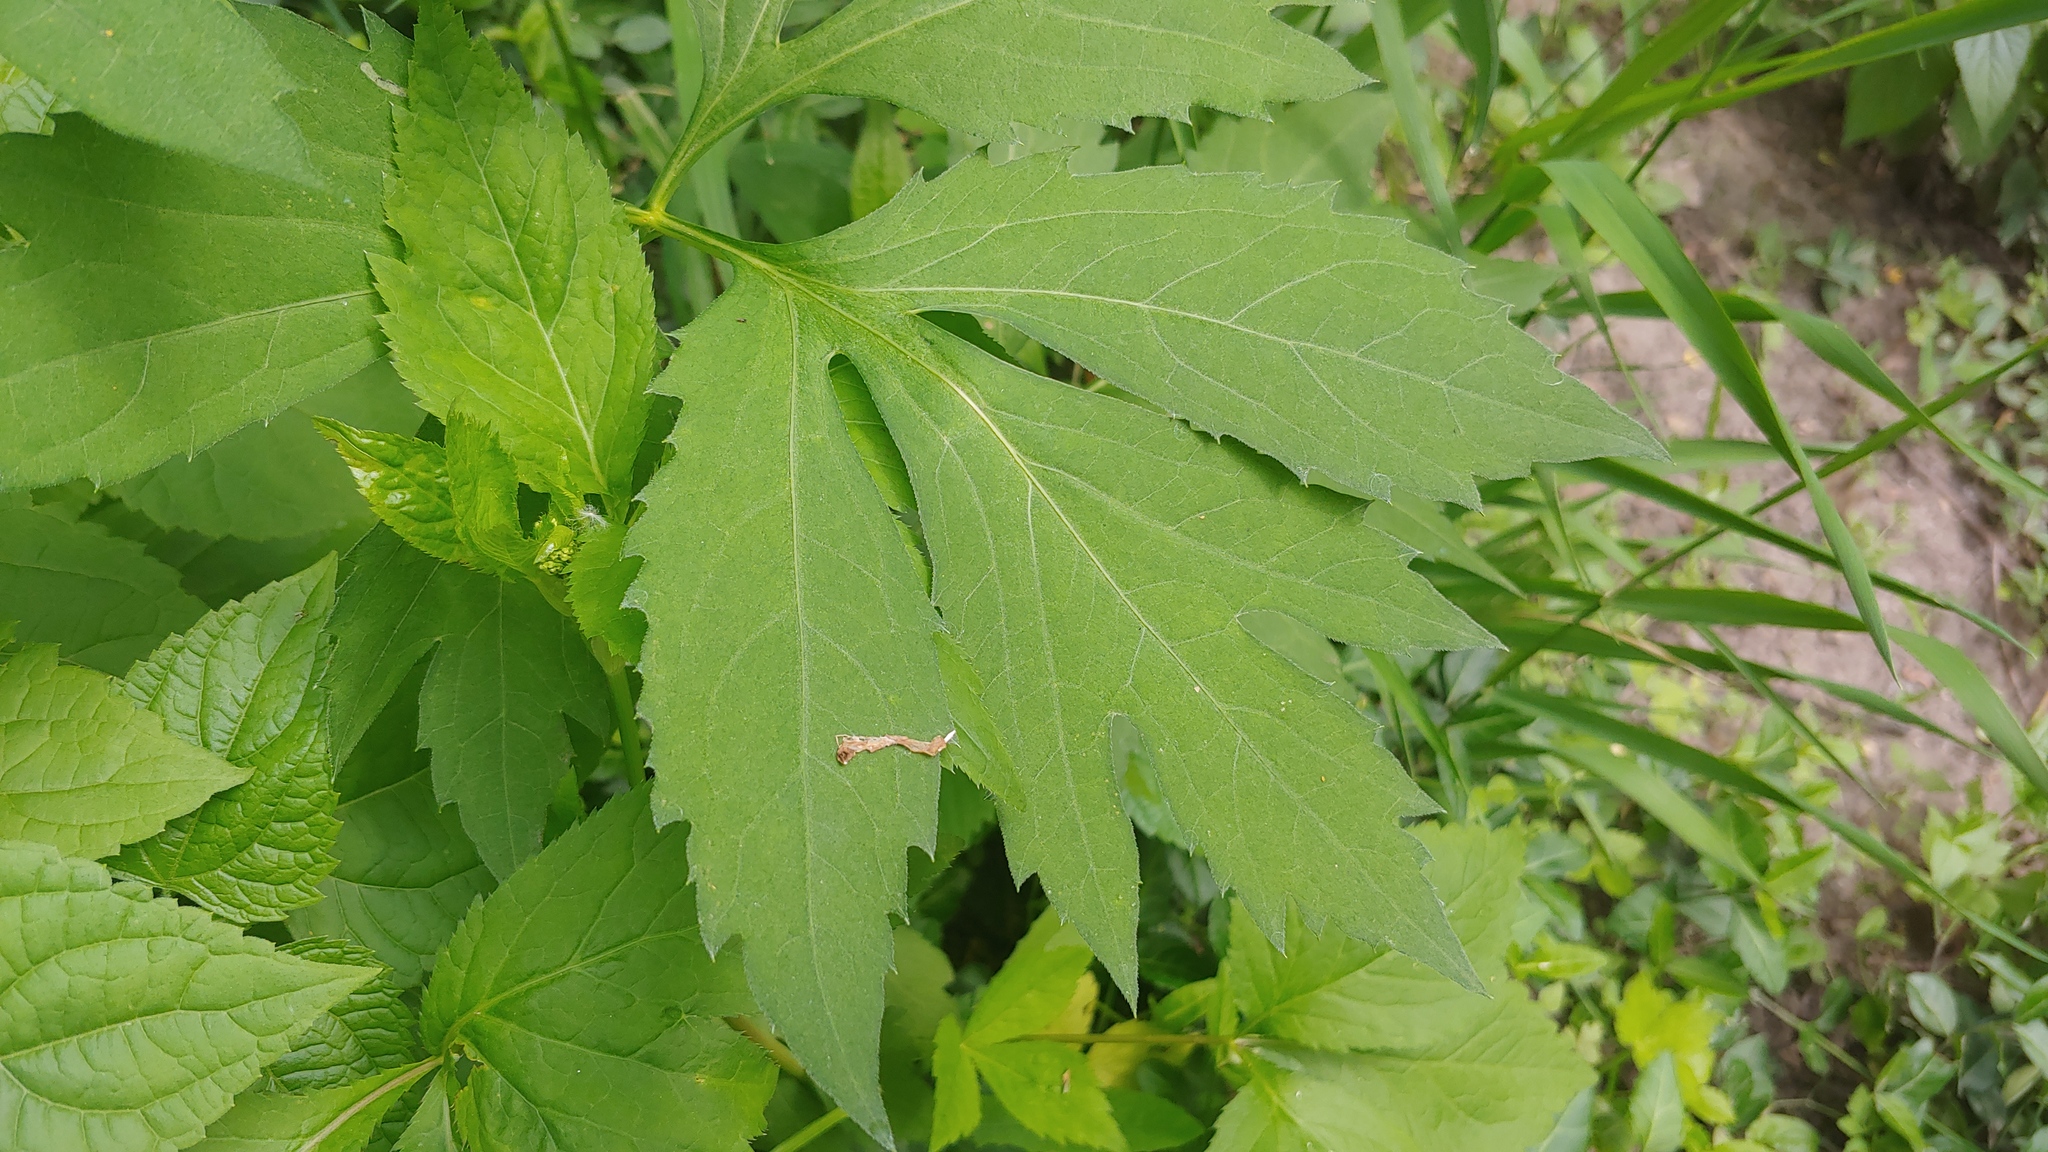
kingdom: Plantae
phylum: Tracheophyta
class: Magnoliopsida
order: Asterales
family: Asteraceae
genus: Rudbeckia
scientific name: Rudbeckia laciniata
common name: Coneflower
